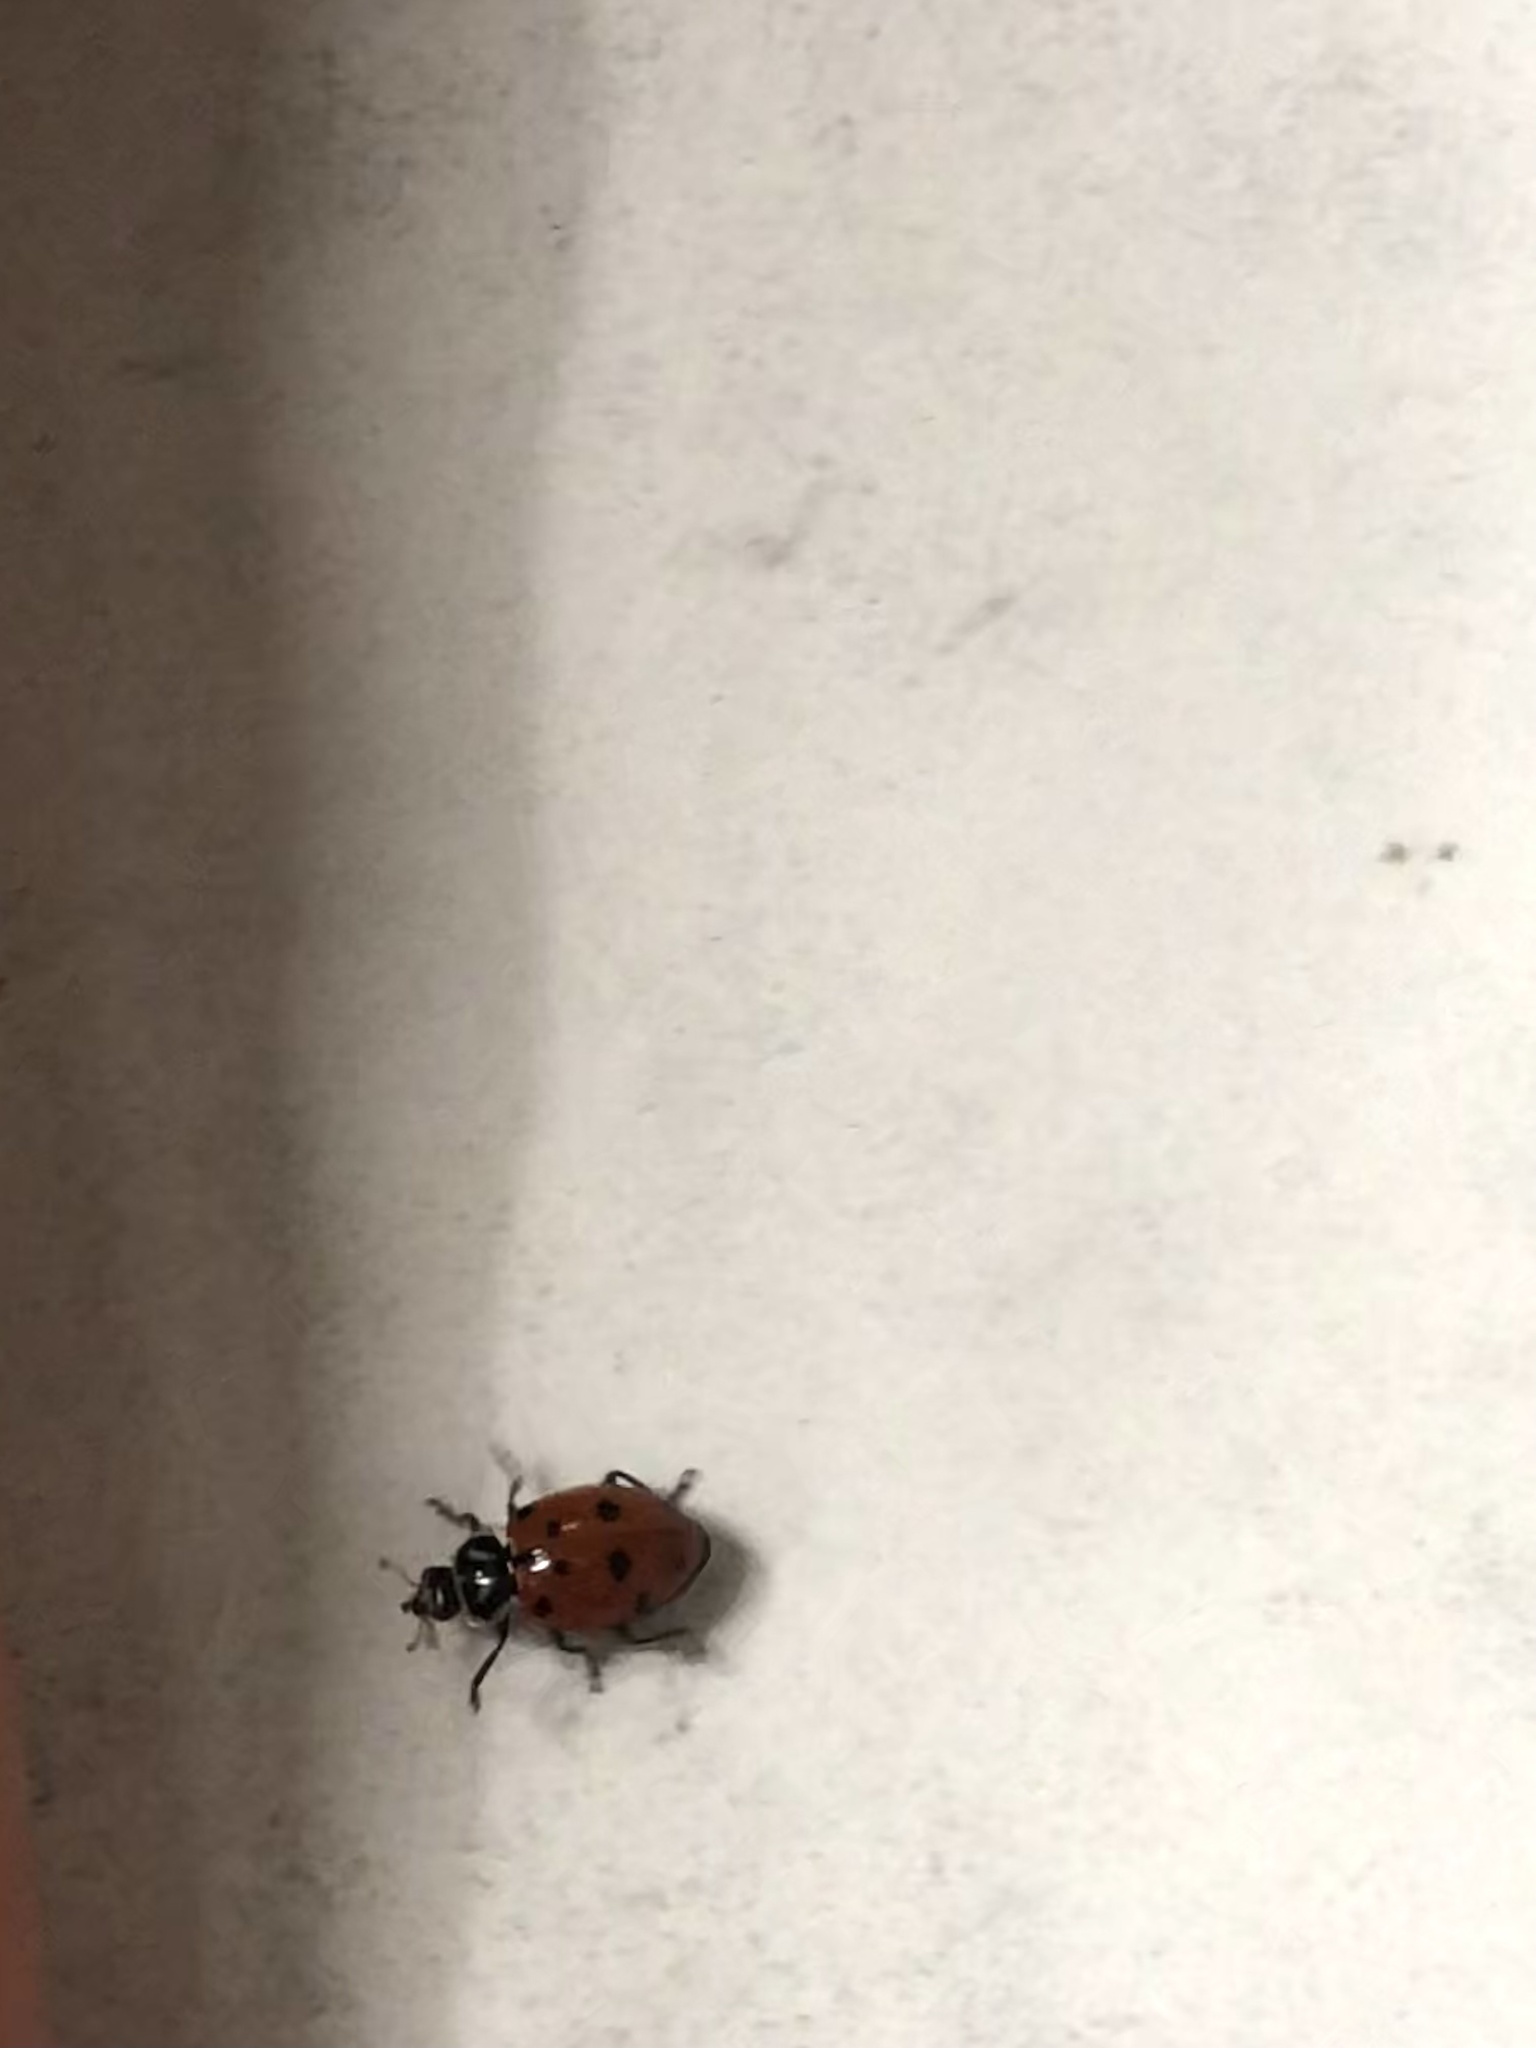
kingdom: Animalia
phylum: Arthropoda
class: Insecta
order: Coleoptera
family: Coccinellidae
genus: Hippodamia
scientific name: Hippodamia convergens
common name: Convergent lady beetle
